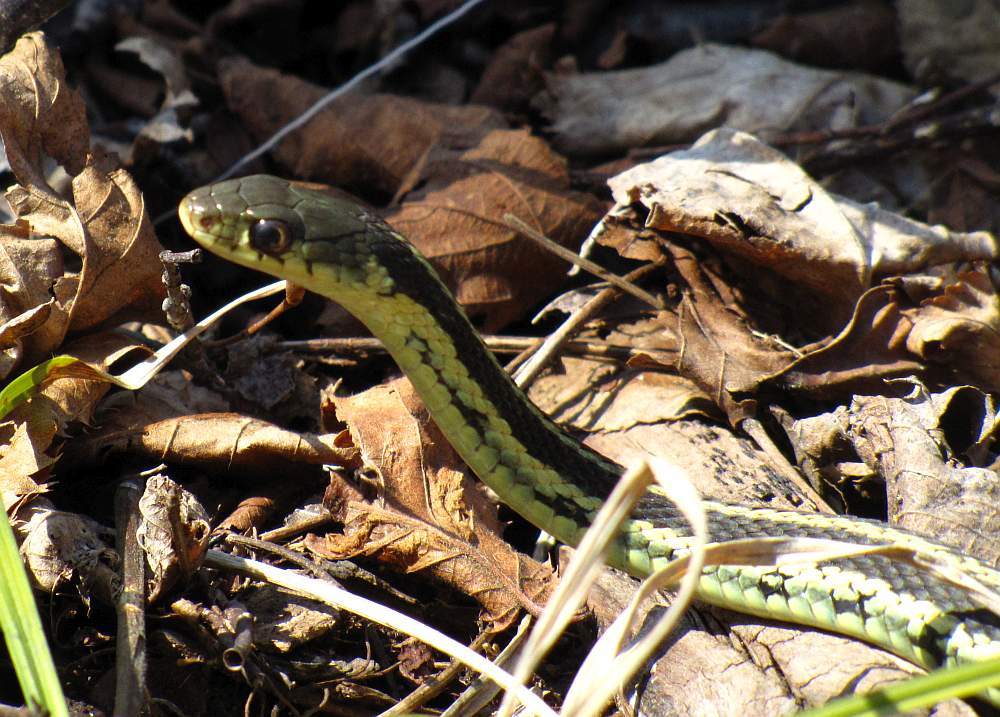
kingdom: Animalia
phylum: Chordata
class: Squamata
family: Colubridae
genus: Thamnophis
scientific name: Thamnophis sirtalis
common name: Common garter snake
